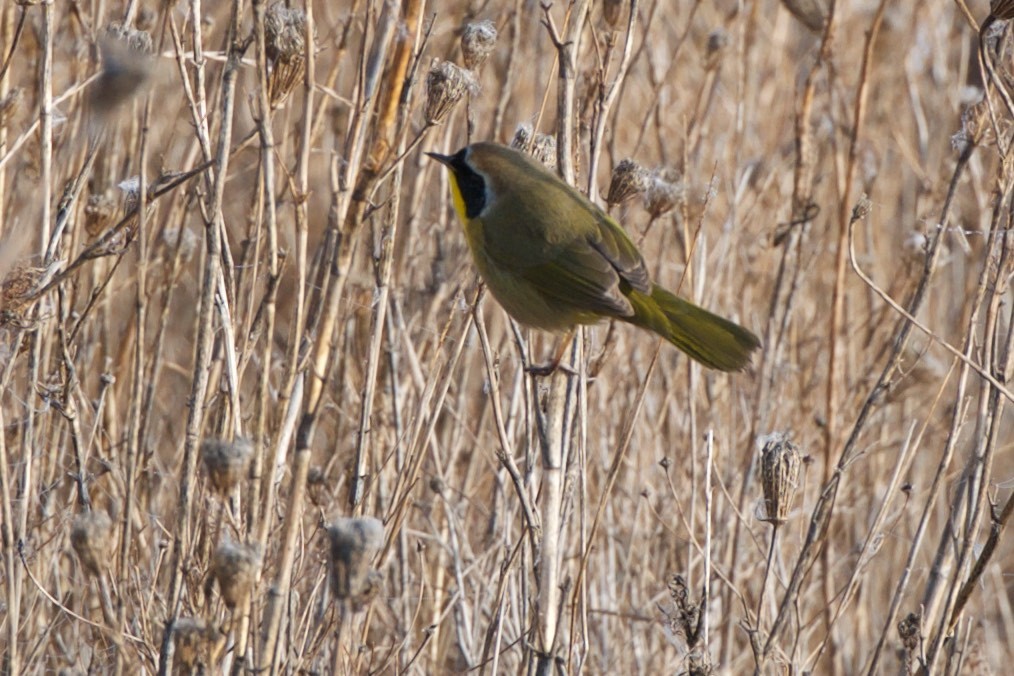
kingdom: Animalia
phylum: Chordata
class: Aves
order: Passeriformes
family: Parulidae
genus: Geothlypis
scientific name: Geothlypis trichas
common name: Common yellowthroat
